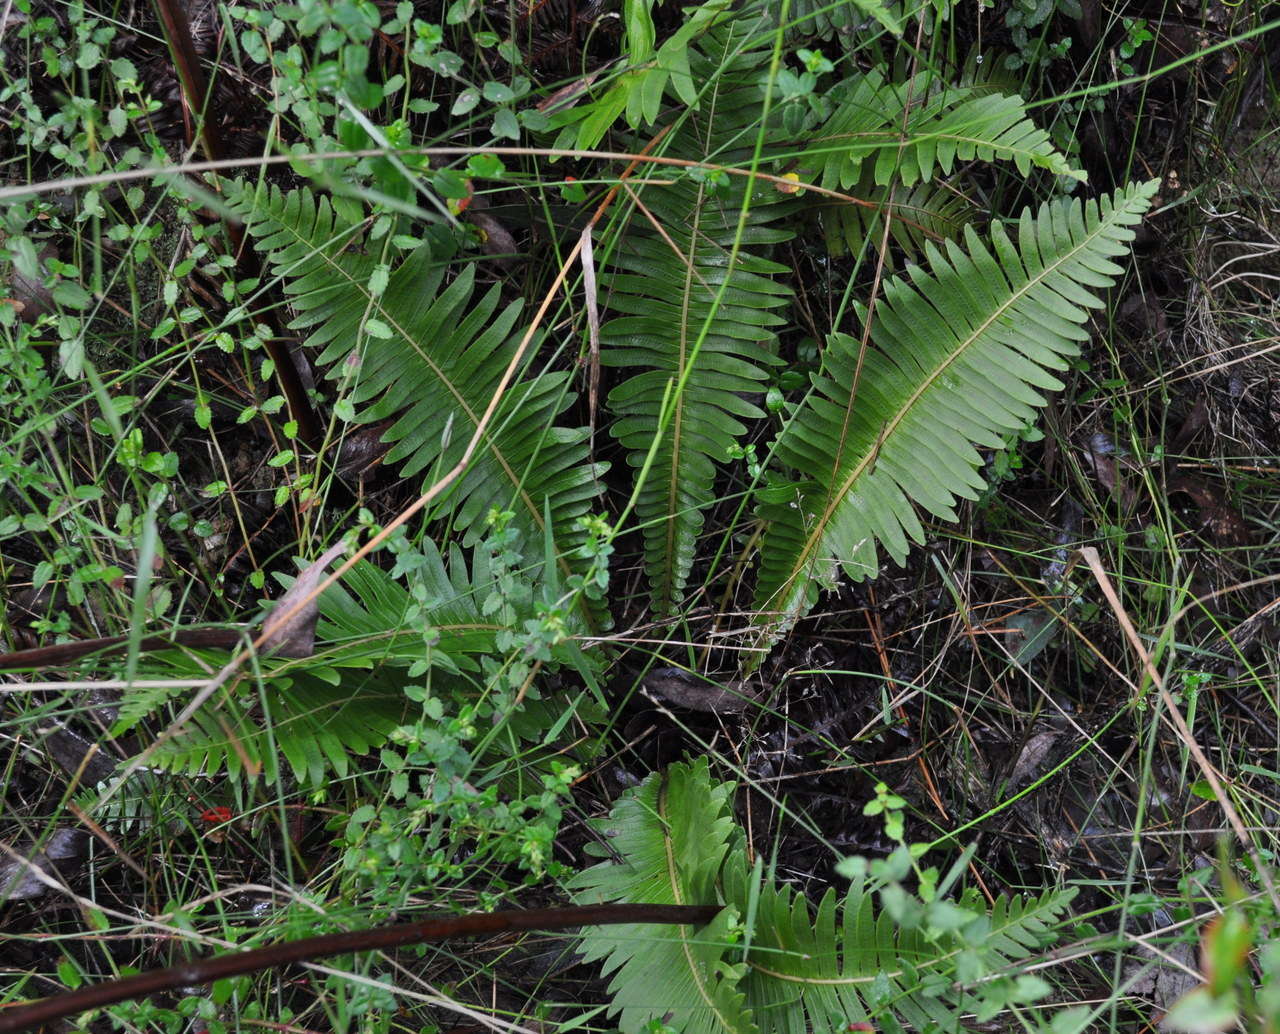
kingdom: Plantae
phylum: Tracheophyta
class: Polypodiopsida
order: Polypodiales
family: Blechnaceae
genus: Lomaria
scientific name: Lomaria nuda
